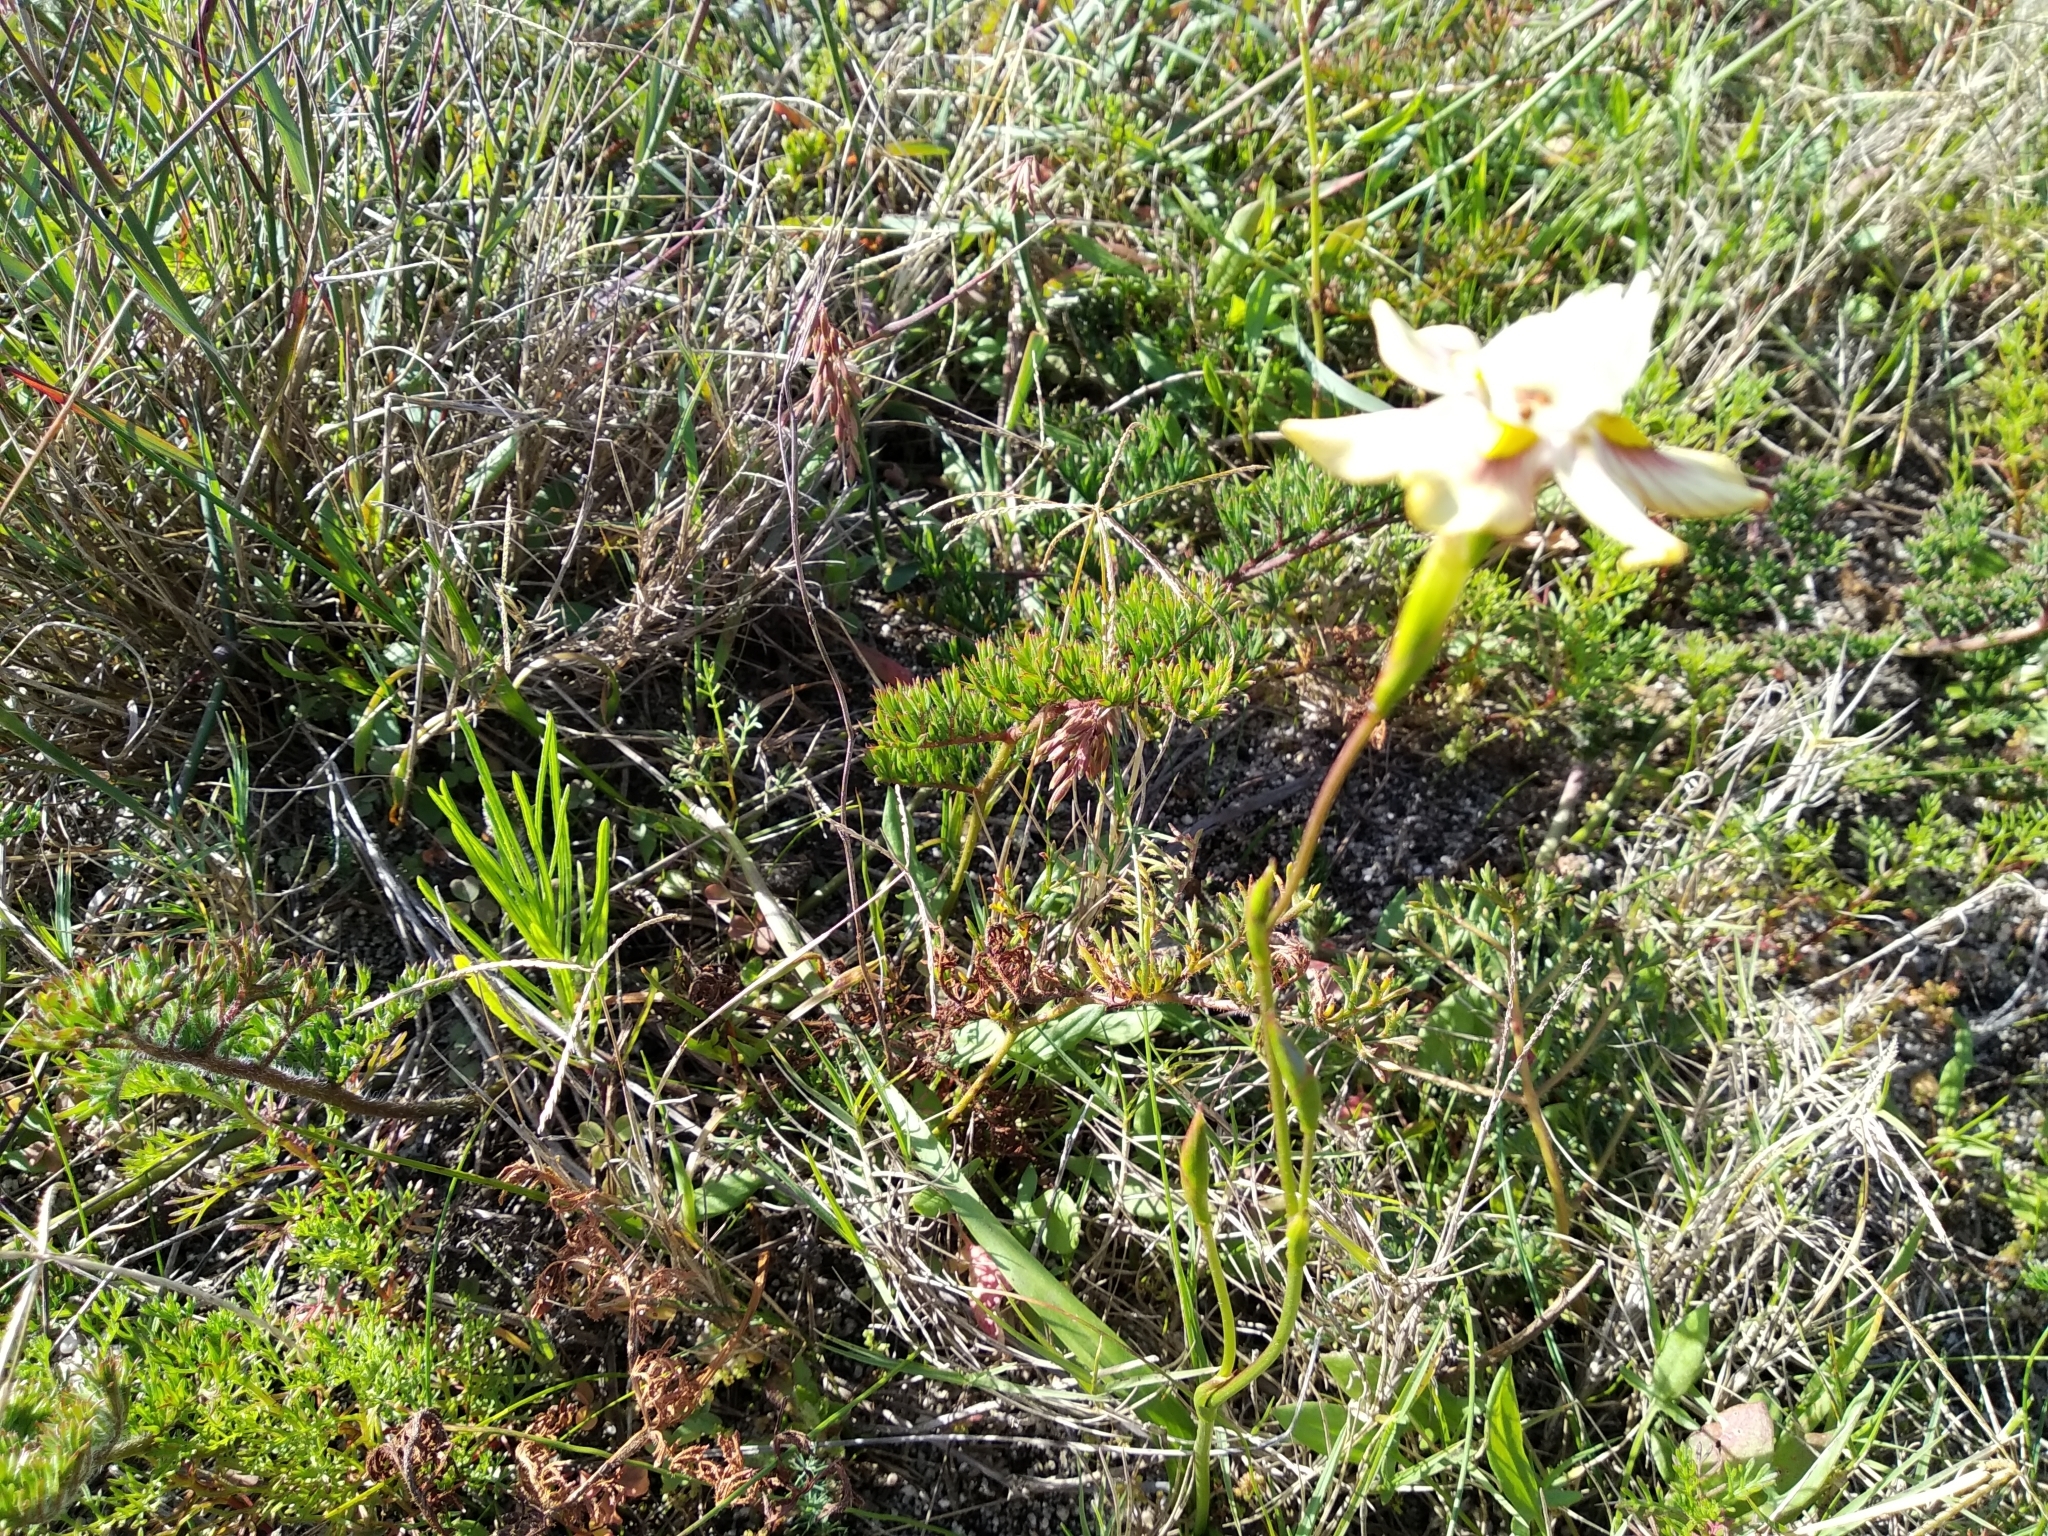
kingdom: Plantae
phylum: Tracheophyta
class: Liliopsida
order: Asparagales
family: Iridaceae
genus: Moraea
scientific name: Moraea gawleri
